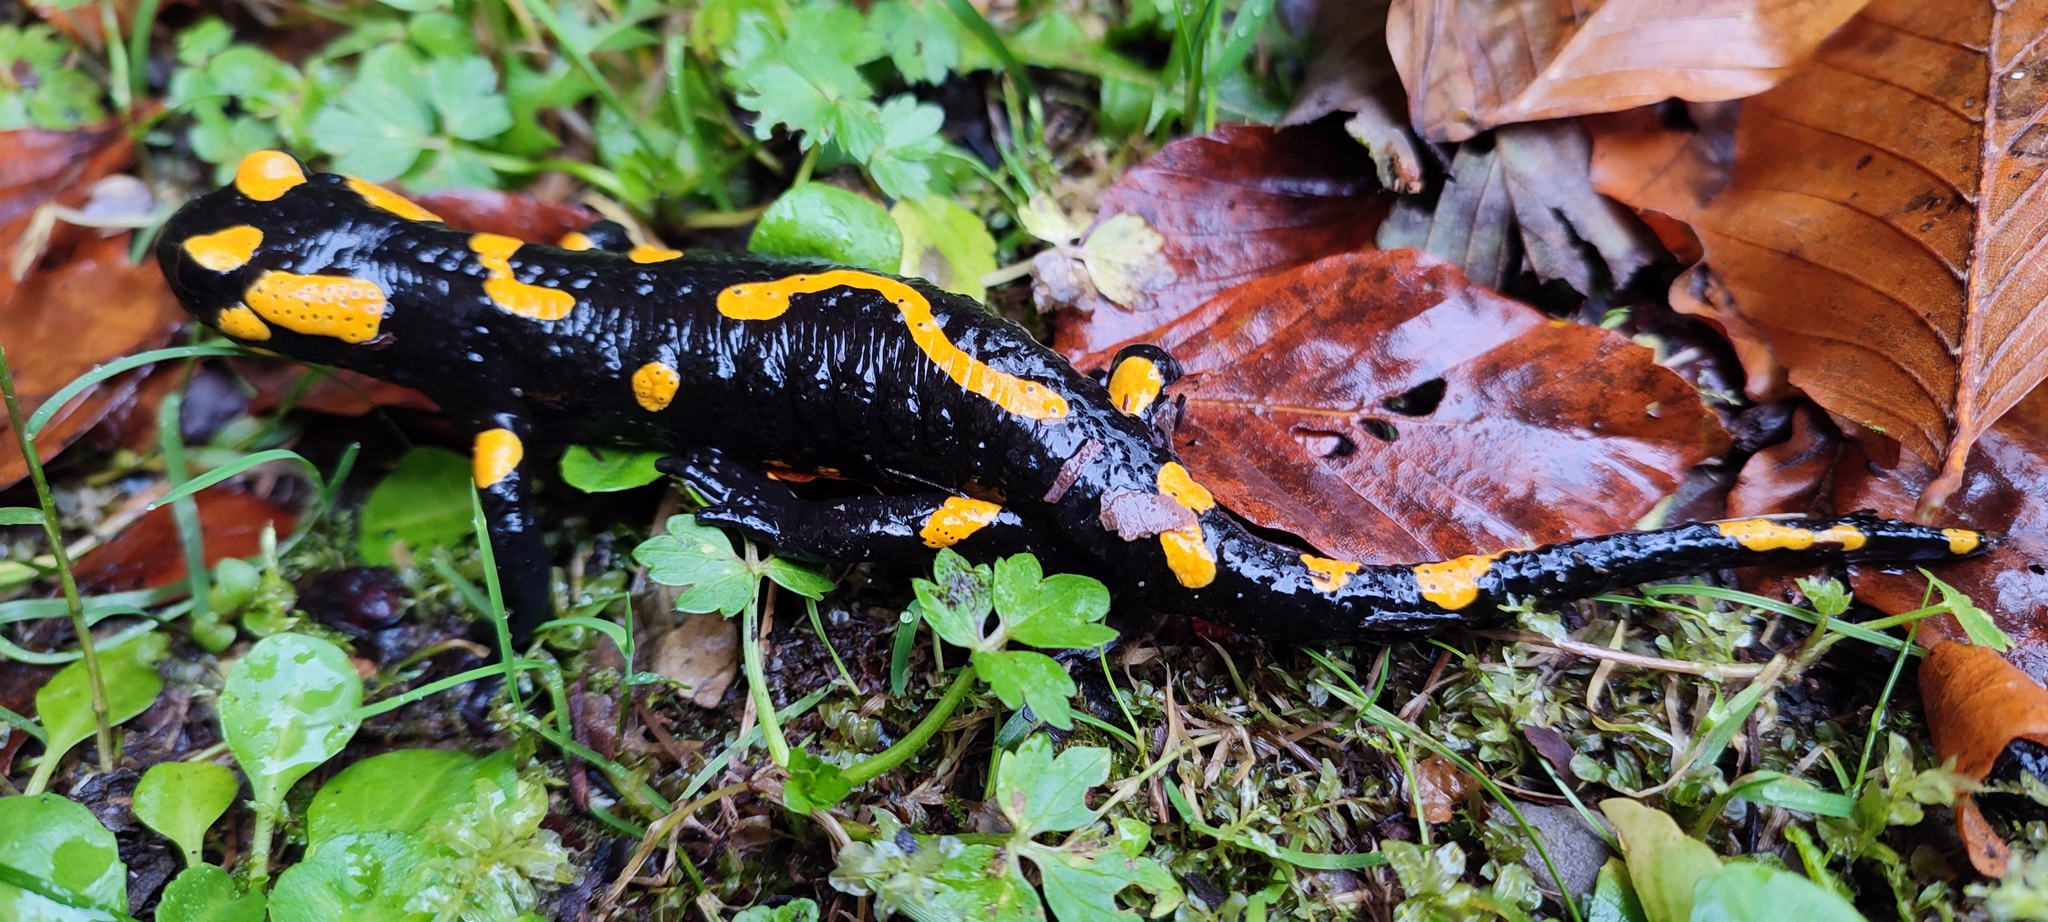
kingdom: Animalia
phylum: Chordata
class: Amphibia
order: Caudata
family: Salamandridae
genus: Salamandra
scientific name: Salamandra salamandra
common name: Fire salamander
